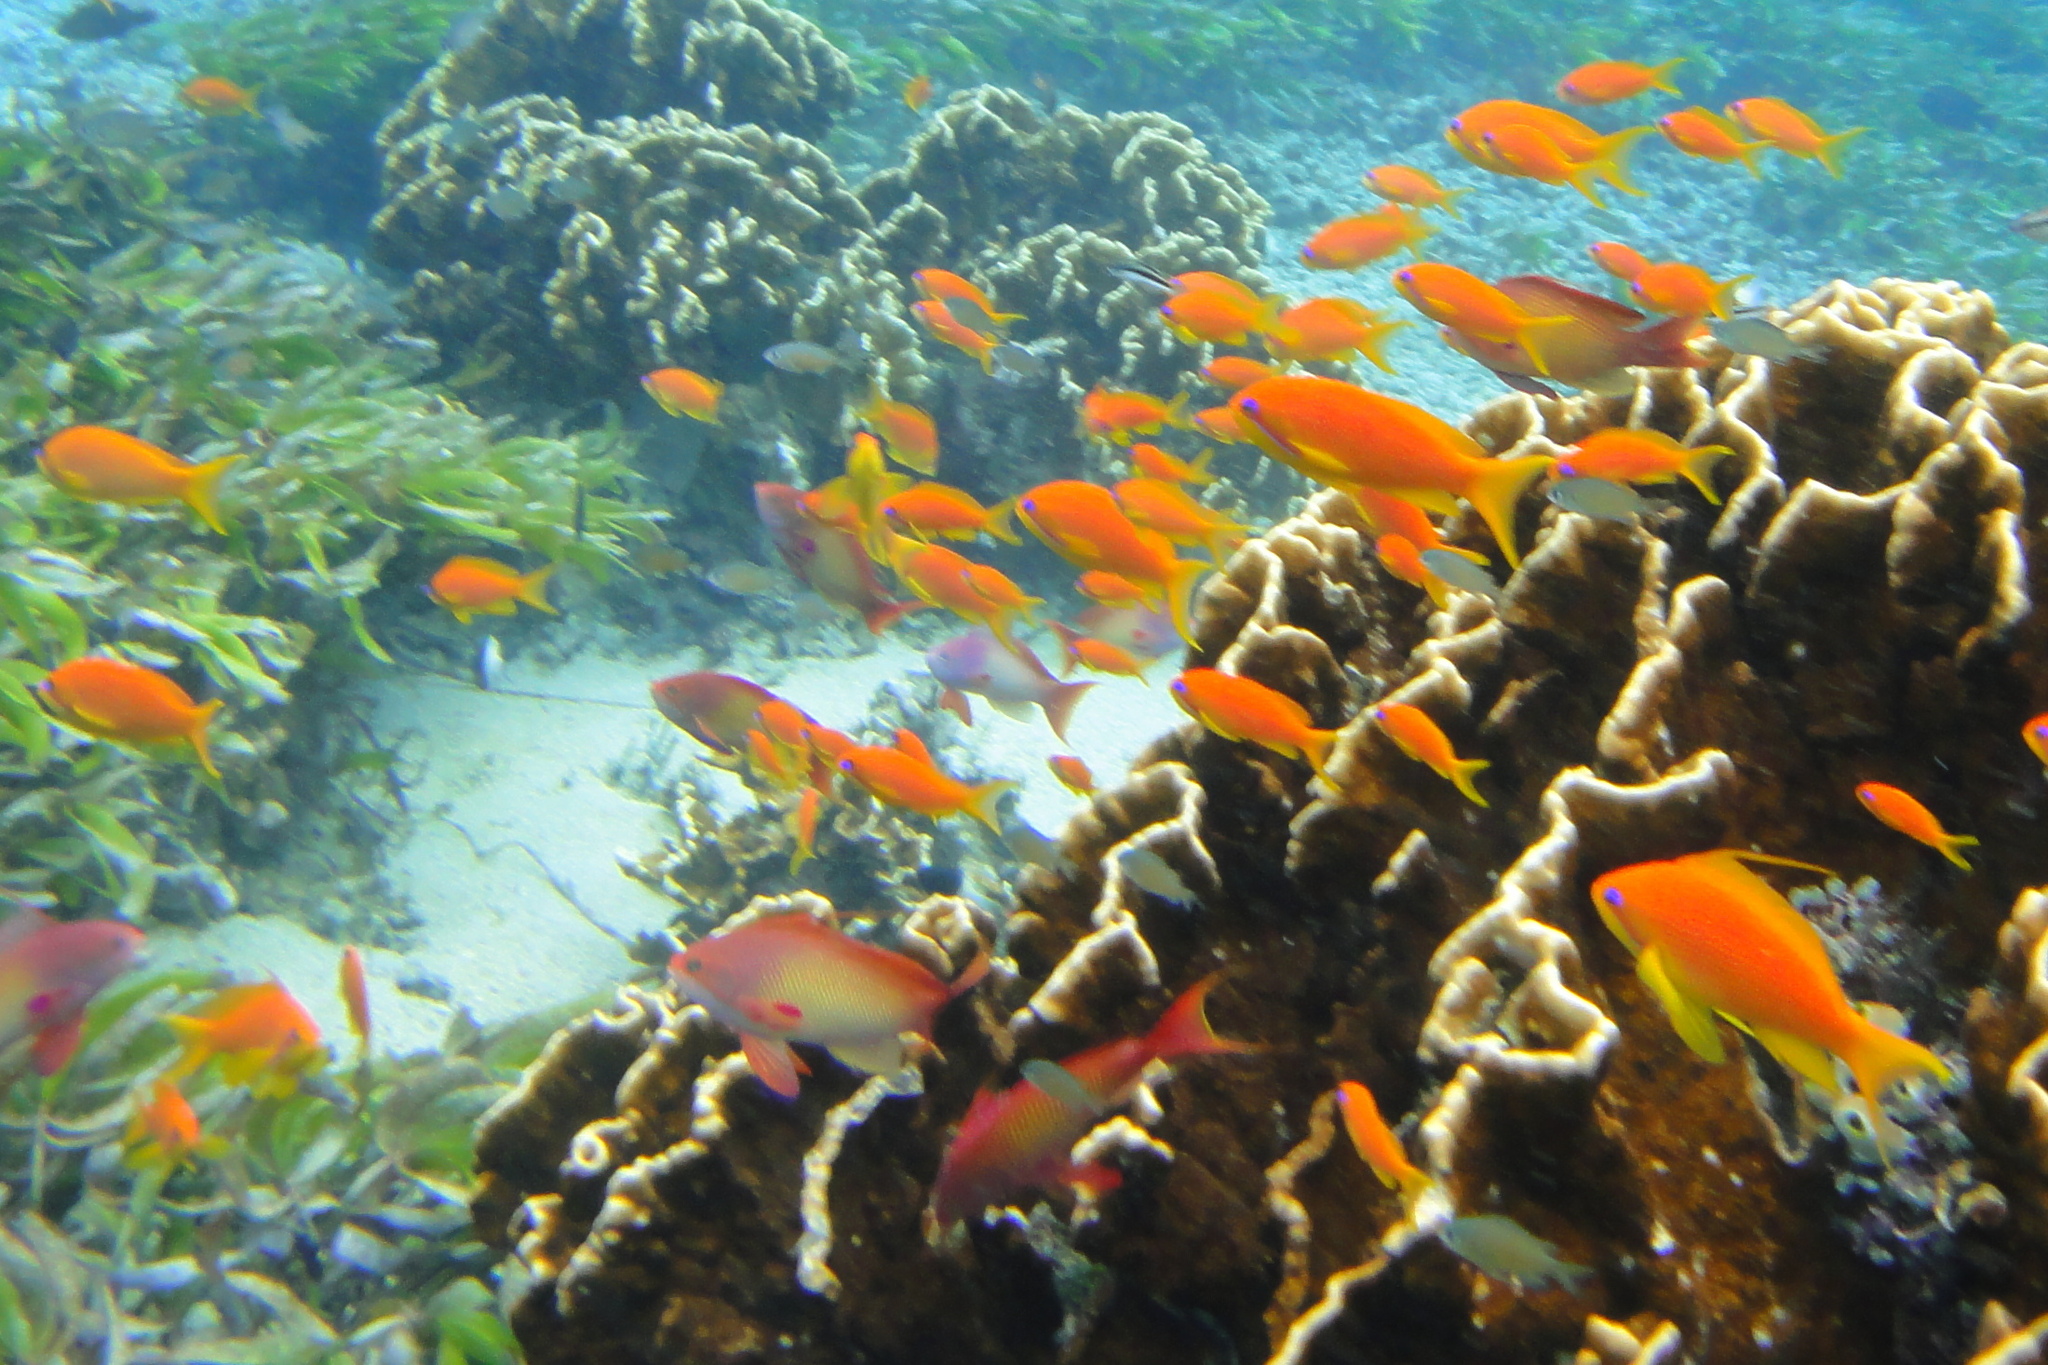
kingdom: Animalia
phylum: Chordata
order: Perciformes
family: Serranidae
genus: Pseudanthias
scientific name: Pseudanthias squamipinnis
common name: Scalefin anthias
